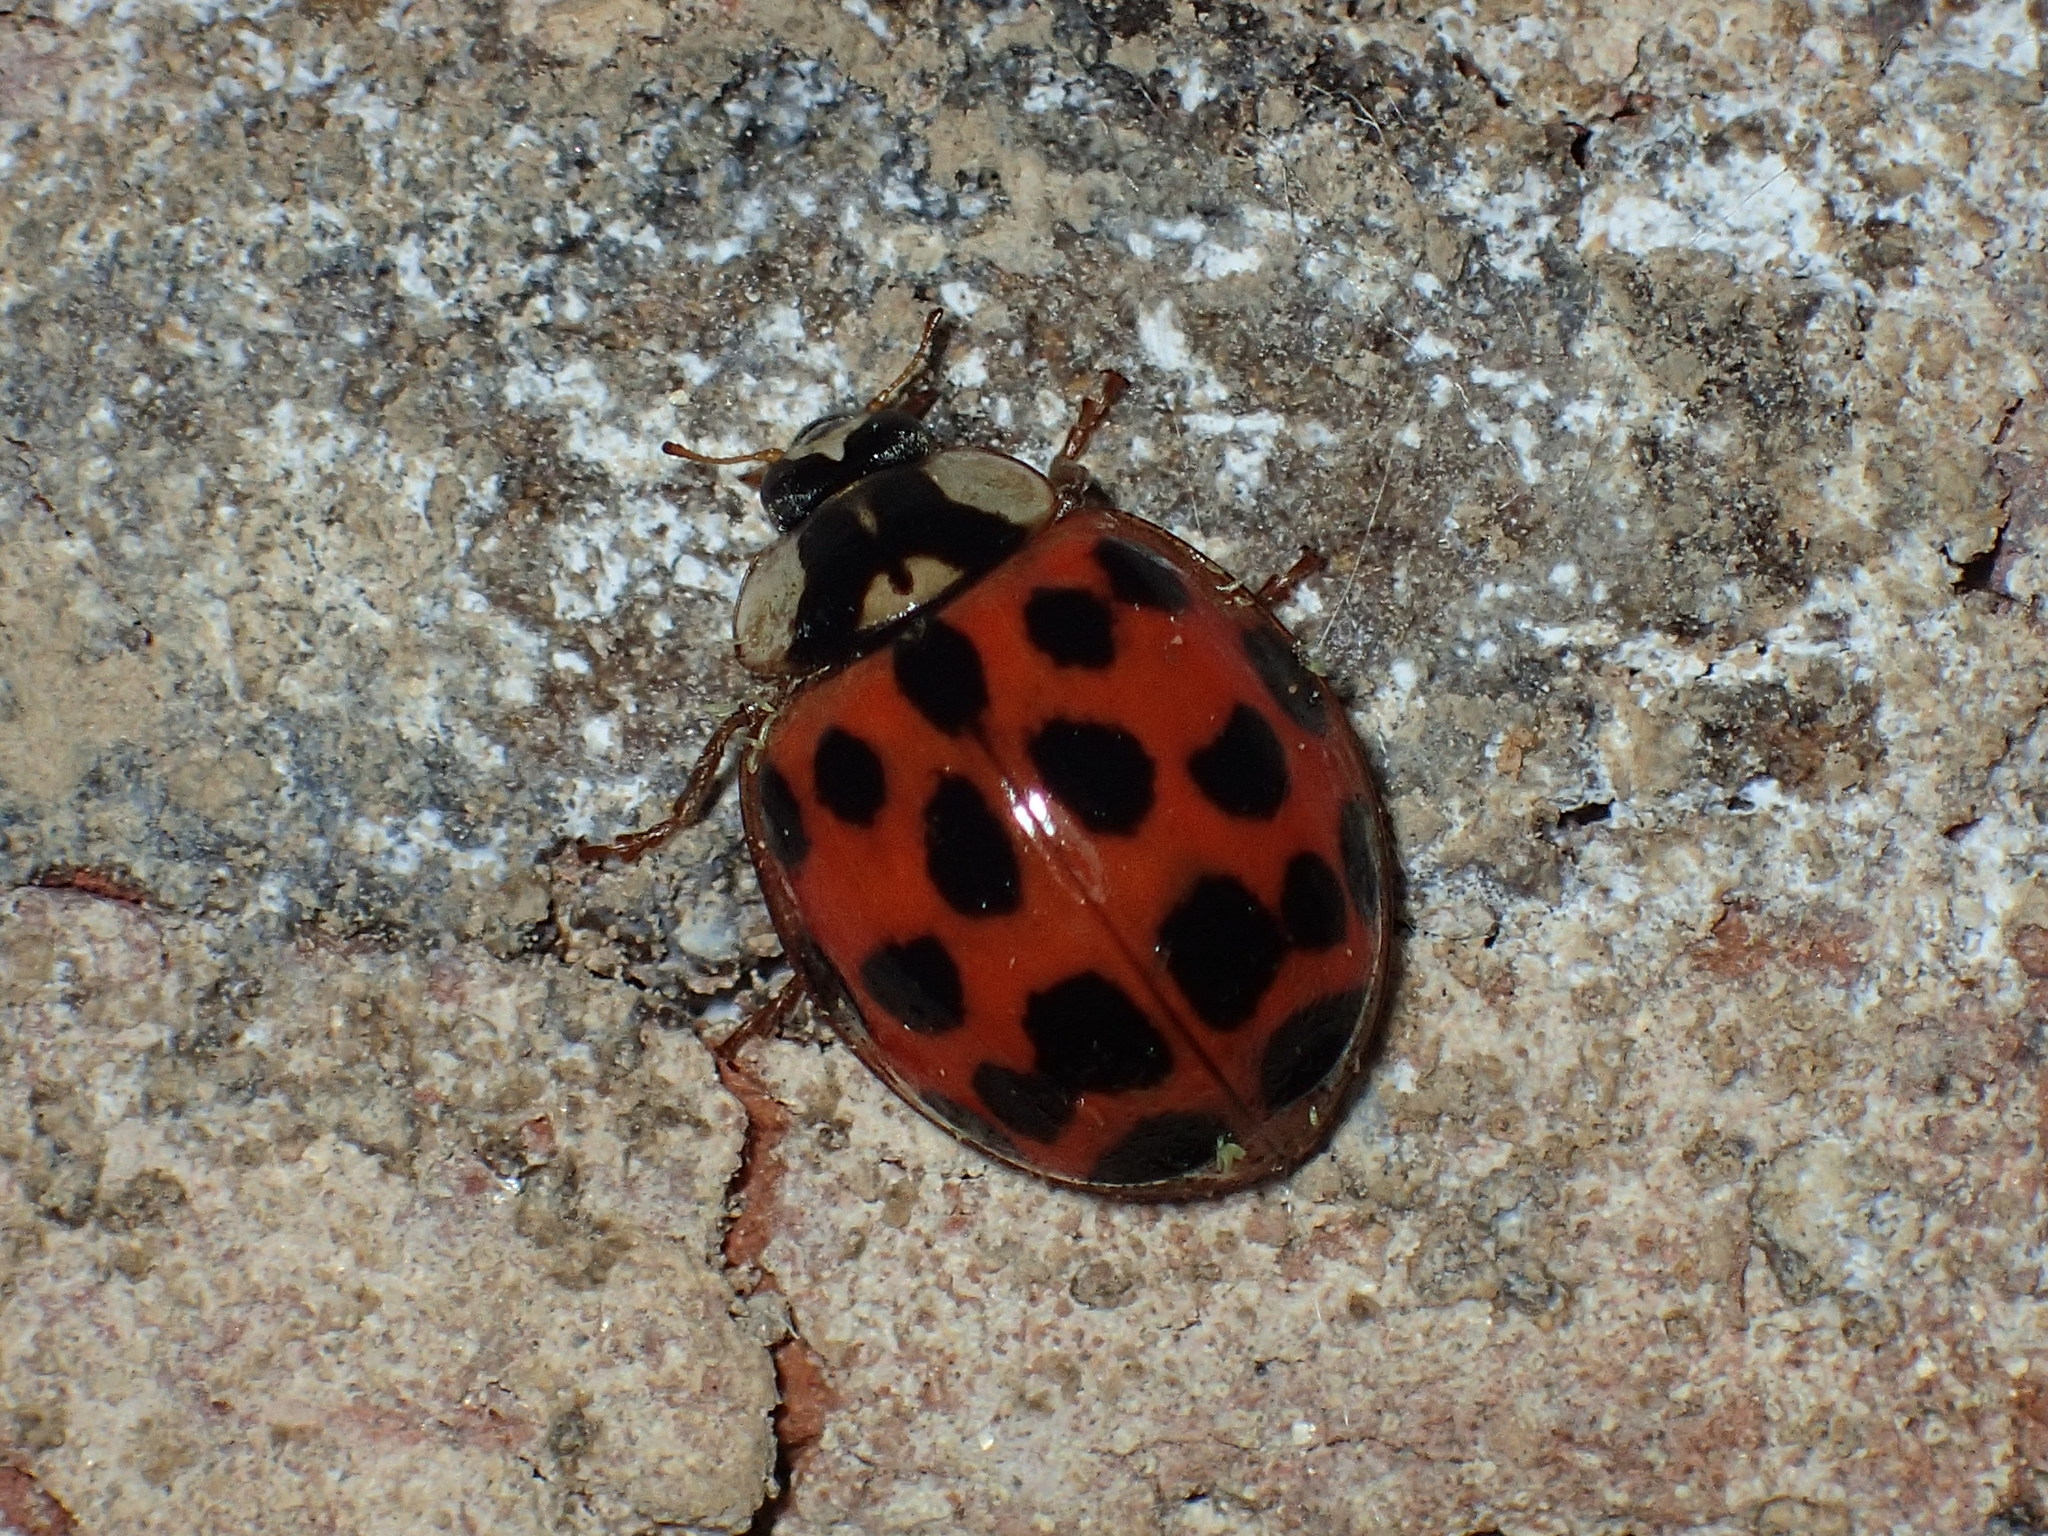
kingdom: Animalia
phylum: Arthropoda
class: Insecta
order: Coleoptera
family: Coccinellidae
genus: Harmonia
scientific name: Harmonia axyridis
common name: Harlequin ladybird
